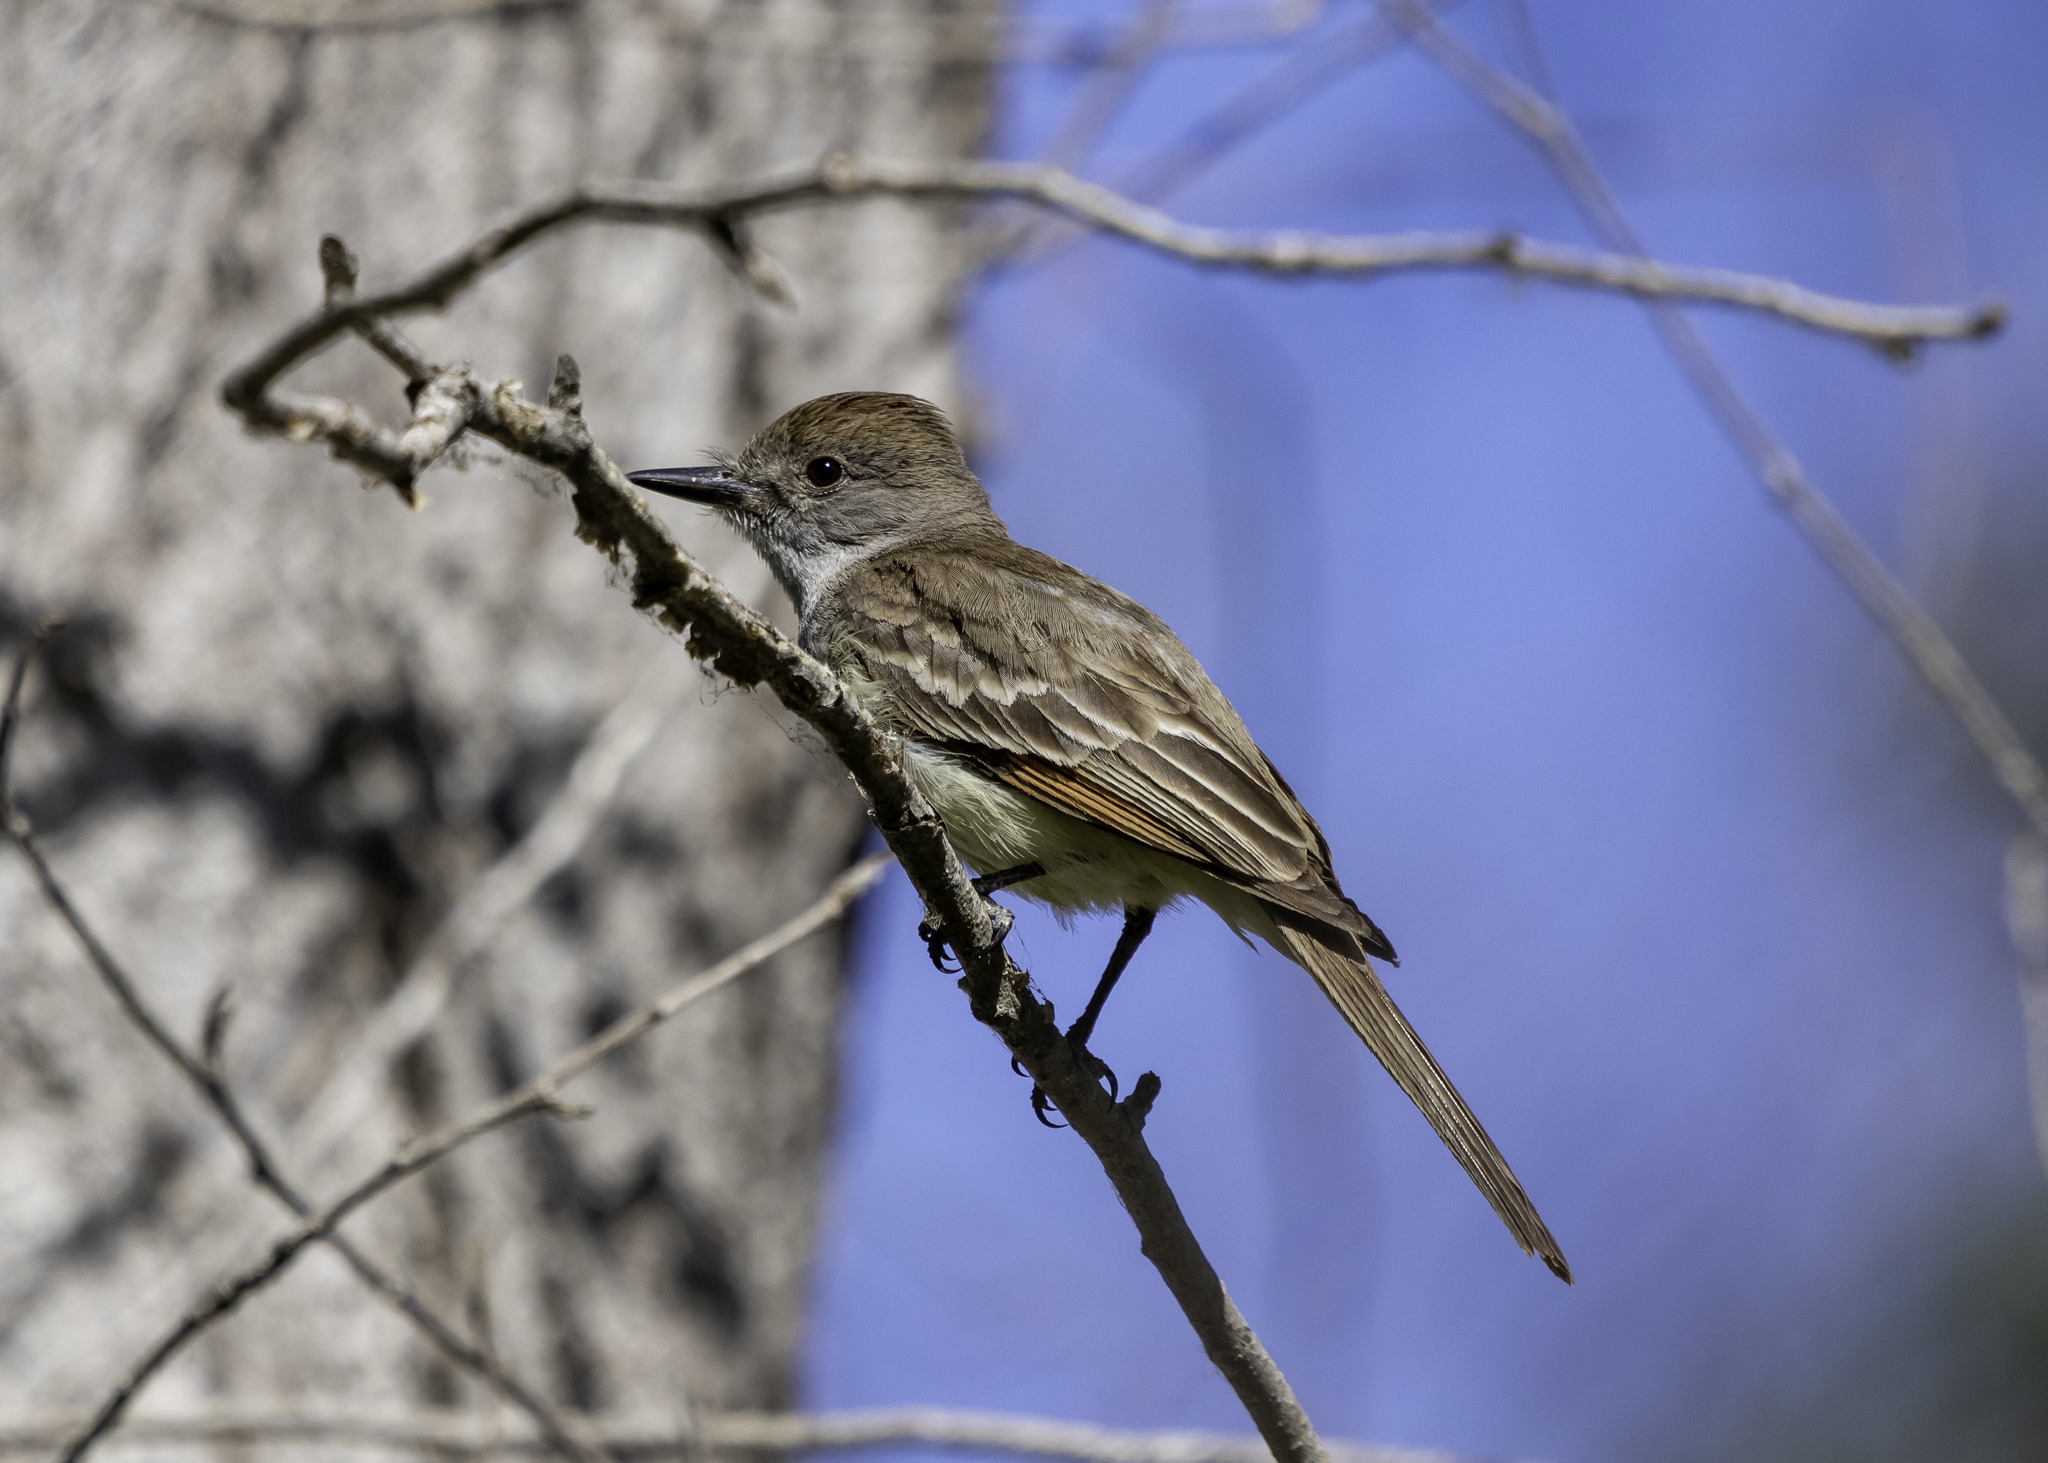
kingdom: Animalia
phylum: Chordata
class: Aves
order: Passeriformes
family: Tyrannidae
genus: Myiarchus
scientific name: Myiarchus cinerascens
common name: Ash-throated flycatcher
